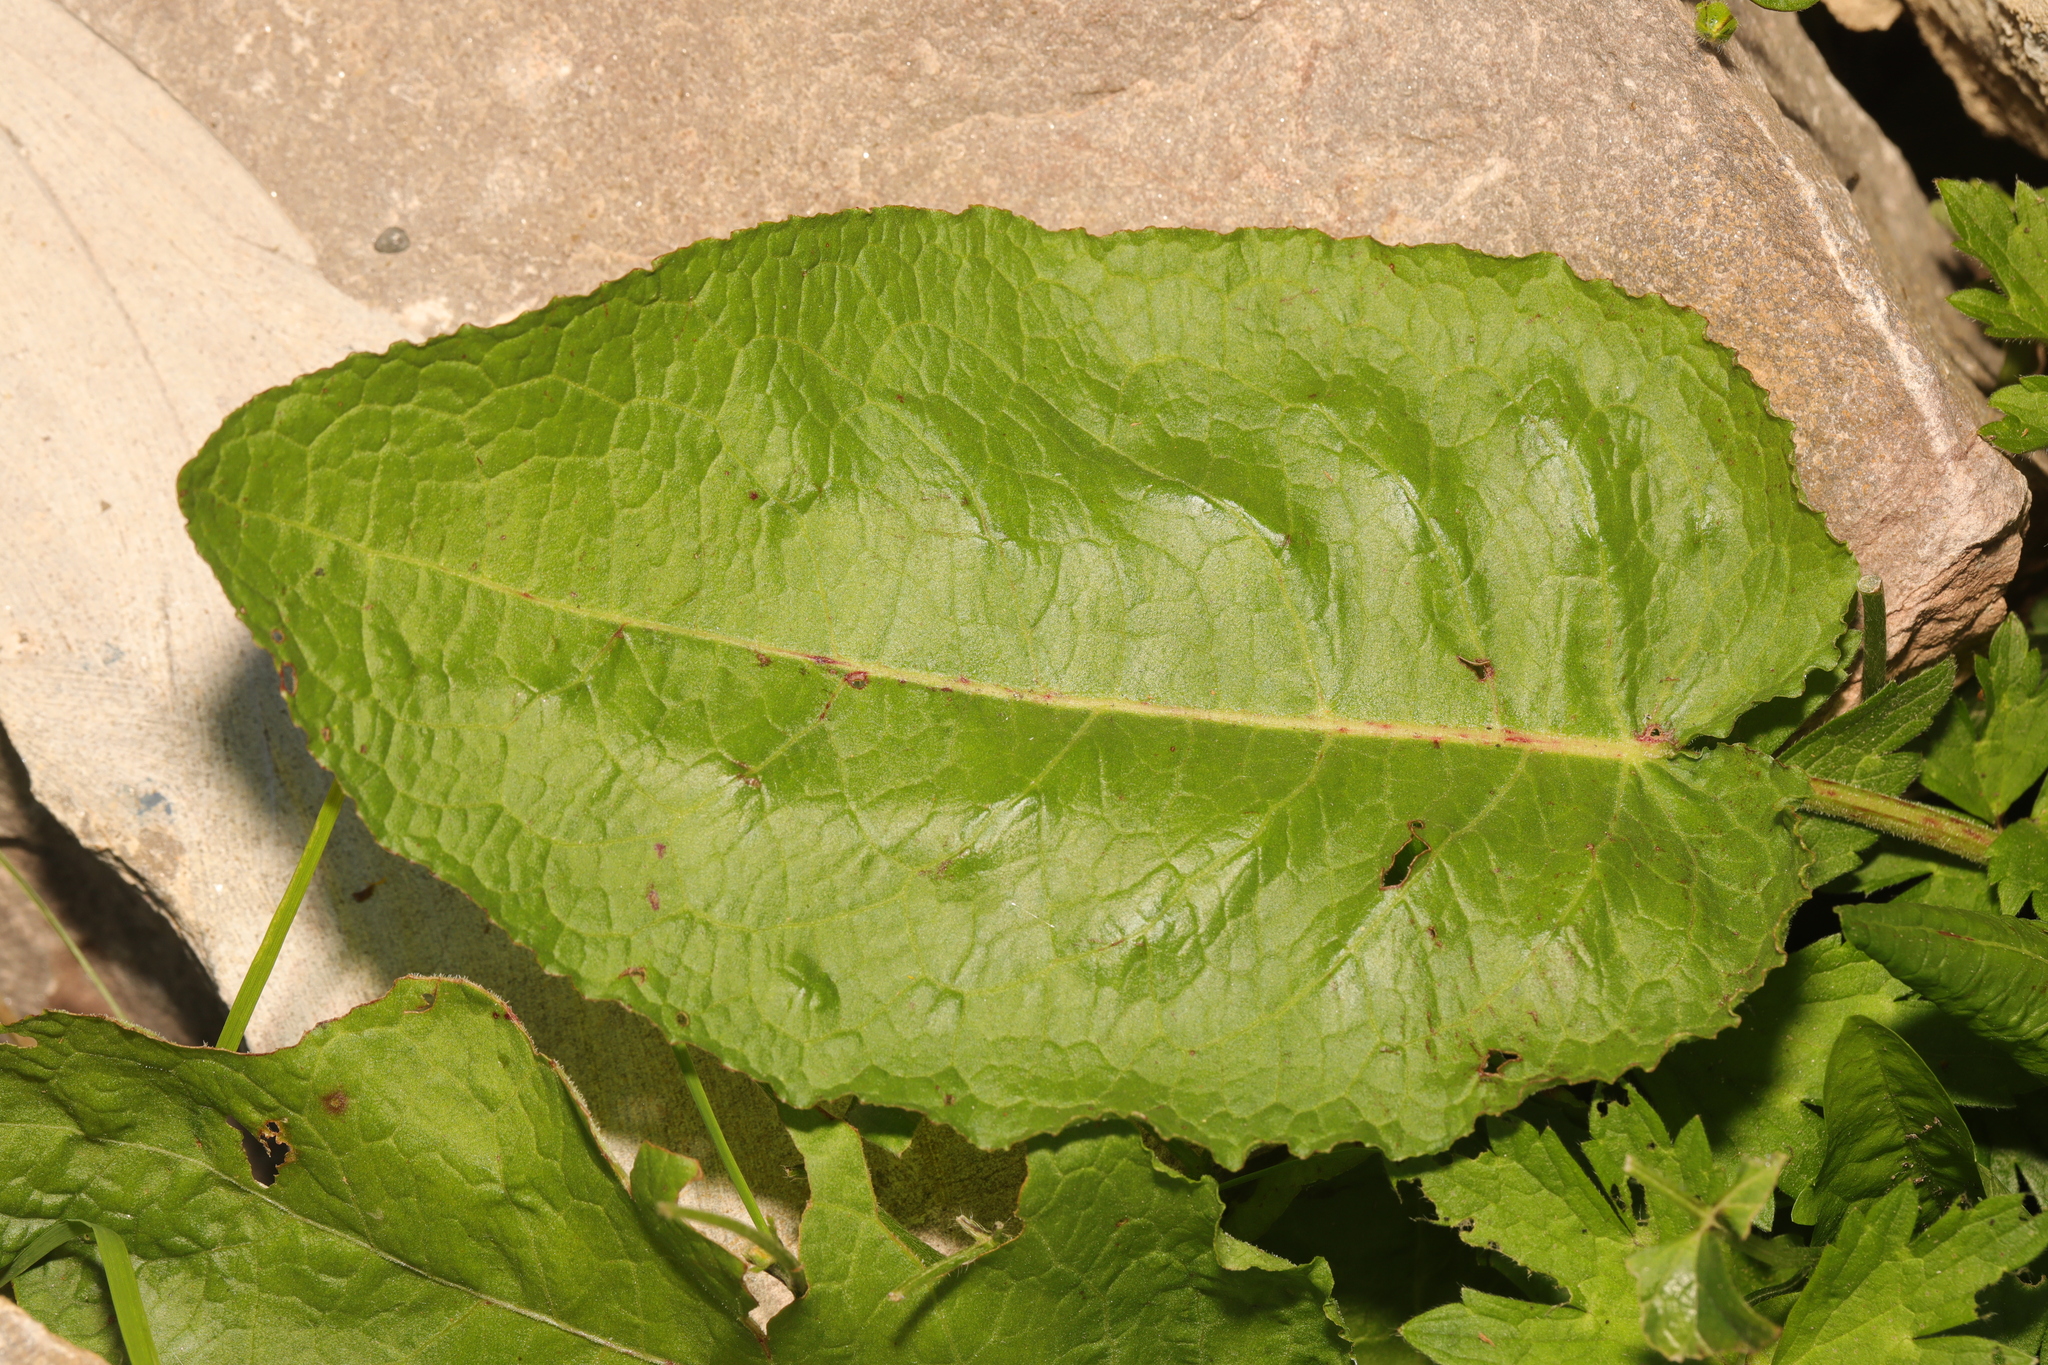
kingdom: Plantae
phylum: Tracheophyta
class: Magnoliopsida
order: Caryophyllales
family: Polygonaceae
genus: Rumex
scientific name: Rumex obtusifolius
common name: Bitter dock
